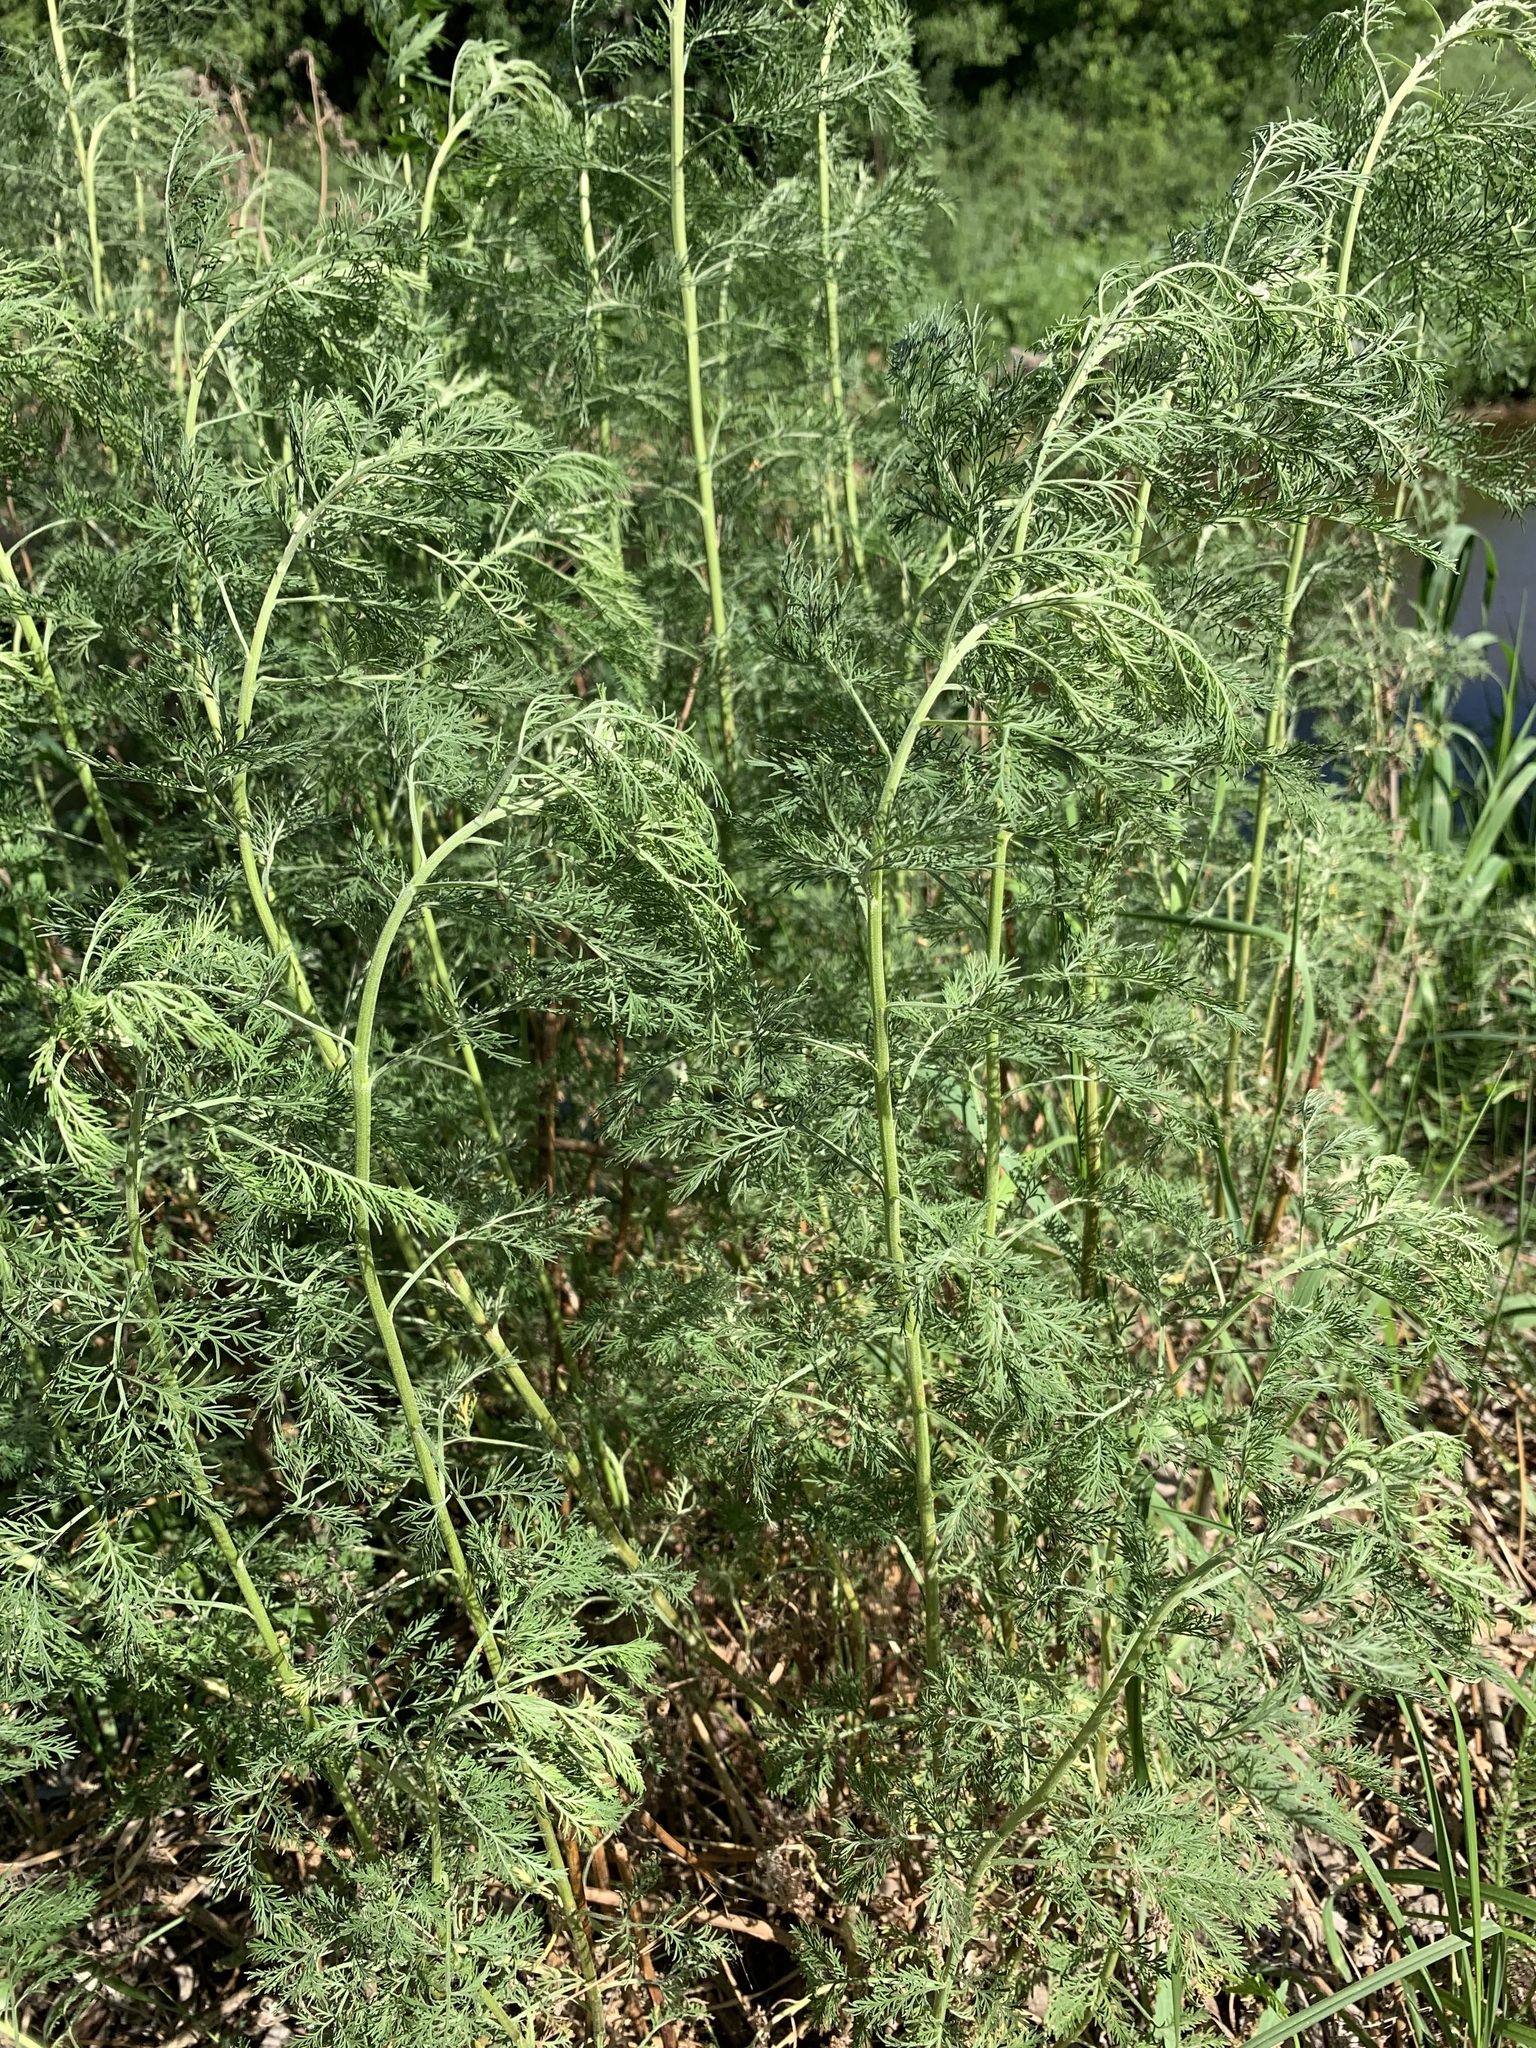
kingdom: Plantae
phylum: Tracheophyta
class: Magnoliopsida
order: Asterales
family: Asteraceae
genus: Artemisia
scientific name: Artemisia abrotanum
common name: Southernwood
